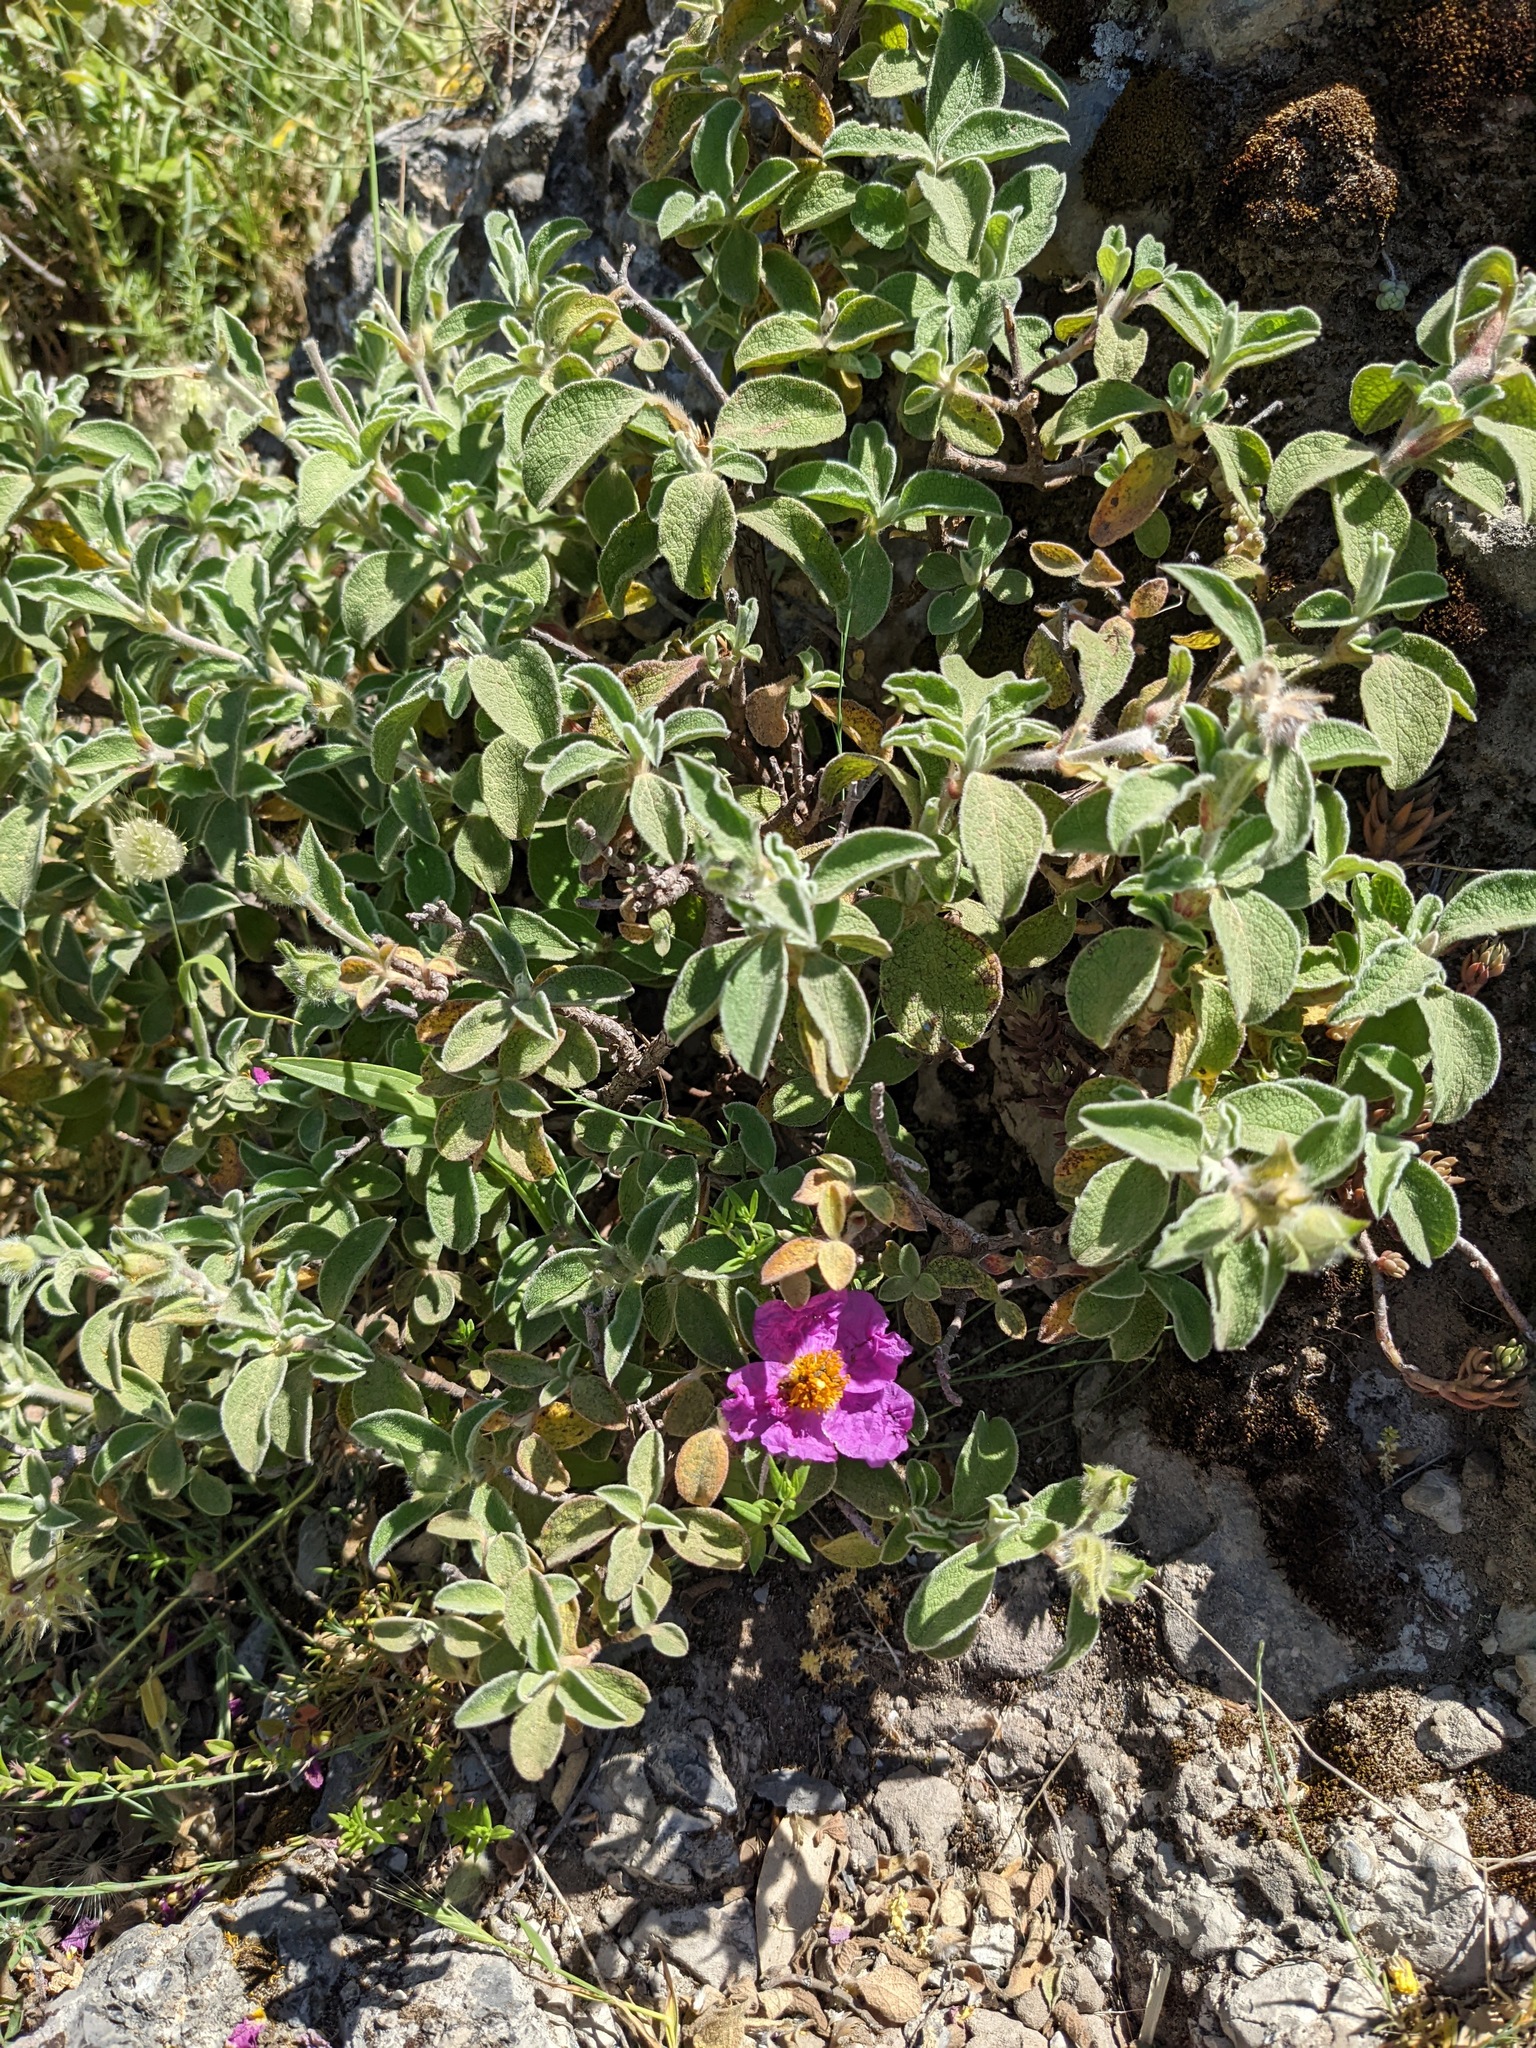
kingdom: Plantae
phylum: Tracheophyta
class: Magnoliopsida
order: Malvales
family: Cistaceae
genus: Cistus
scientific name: Cistus creticus
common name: Cretan rockrose
